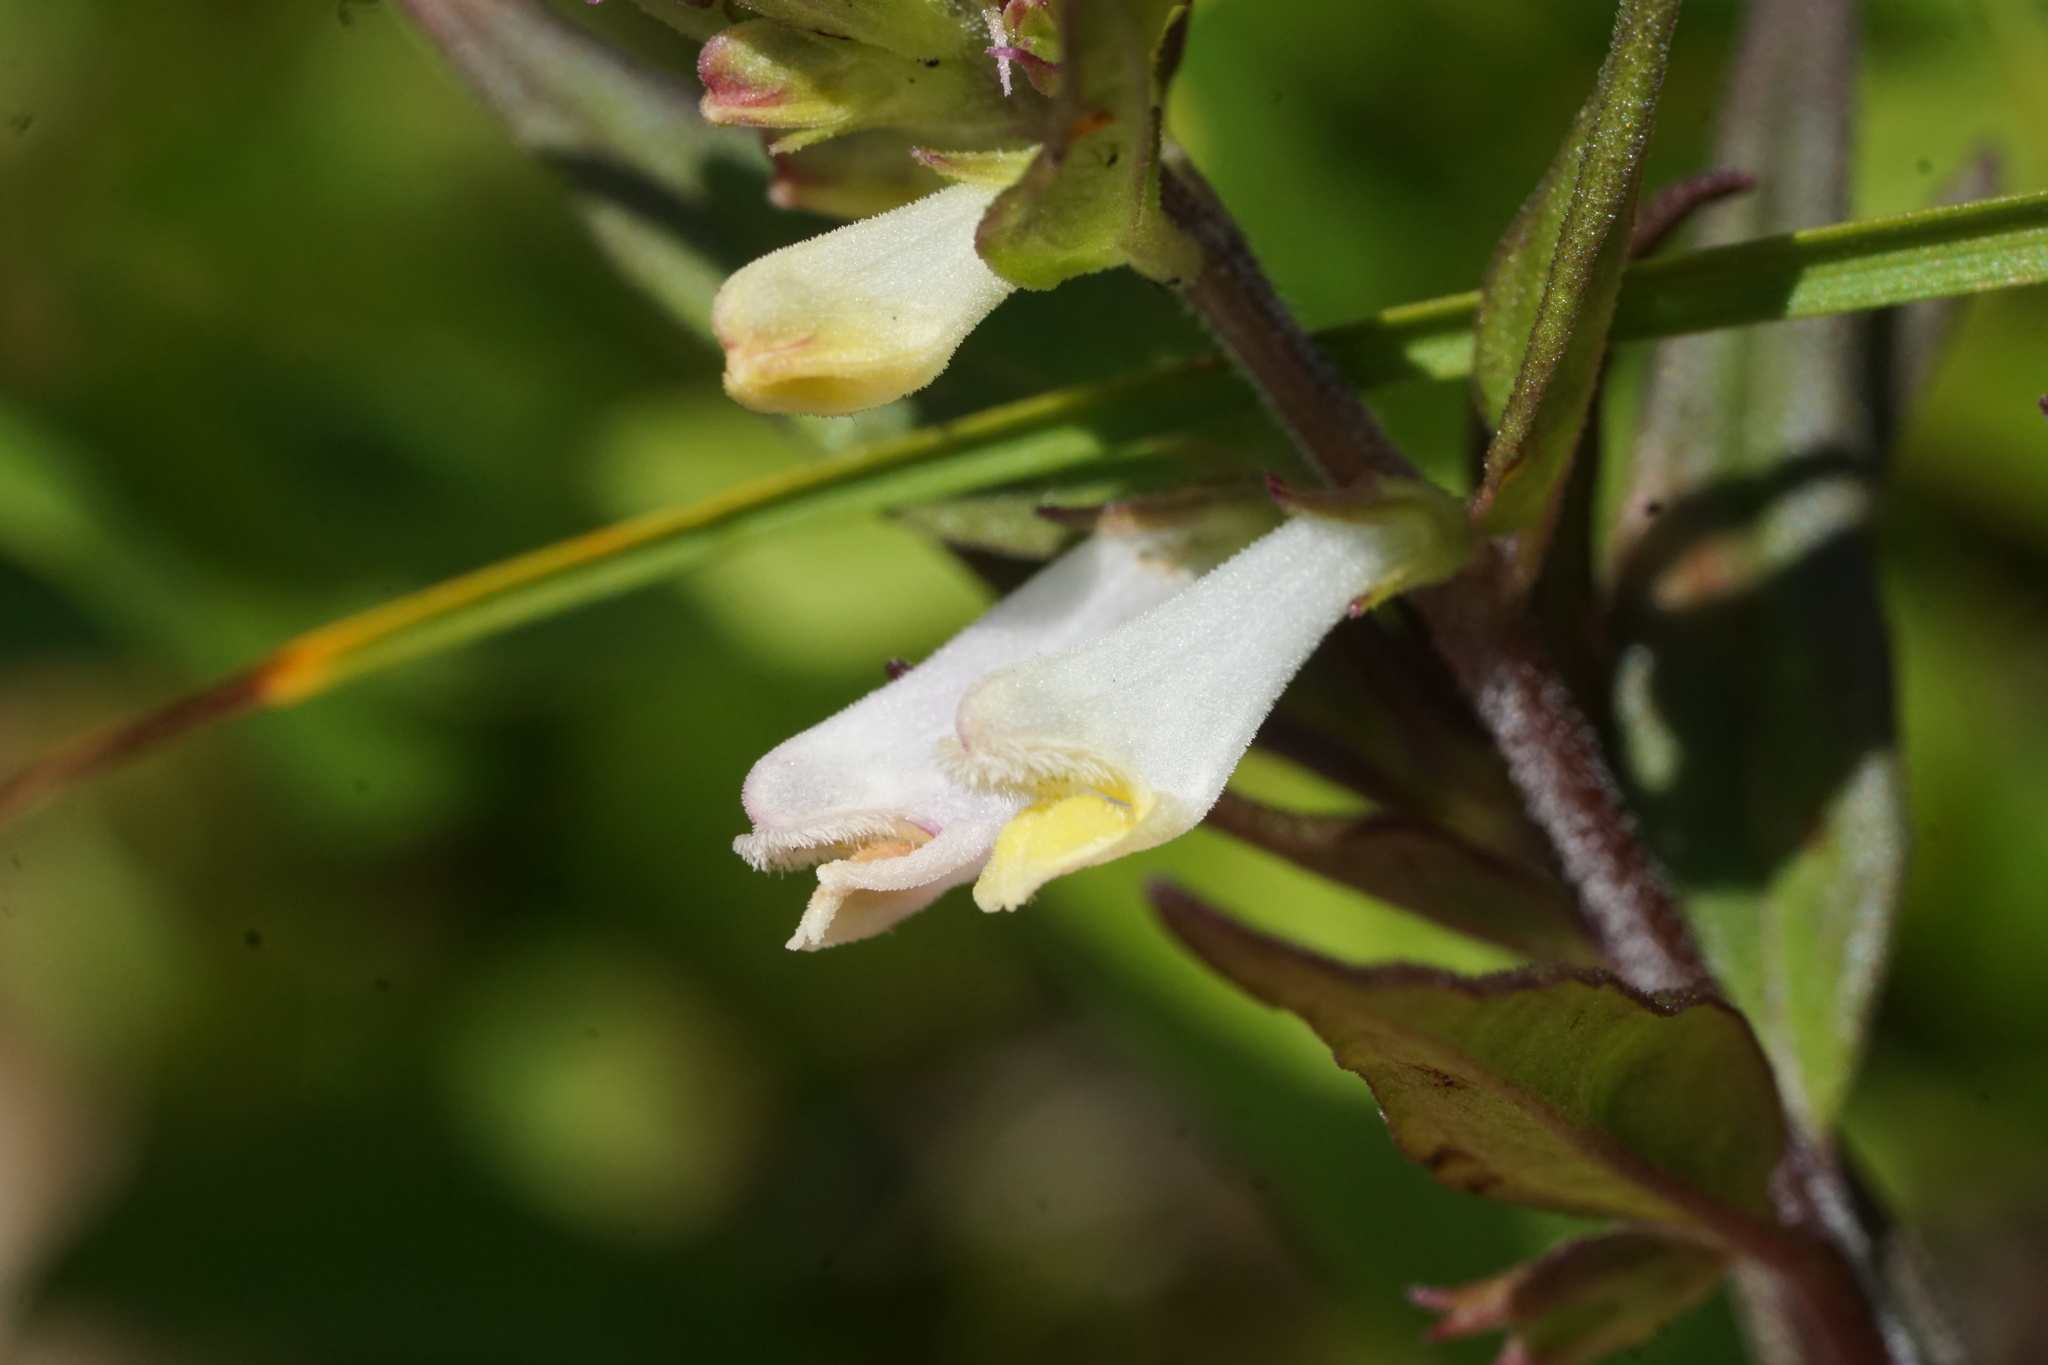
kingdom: Plantae
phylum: Tracheophyta
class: Magnoliopsida
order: Lamiales
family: Orobanchaceae
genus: Melampyrum
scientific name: Melampyrum lineare
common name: American cow-wheat
